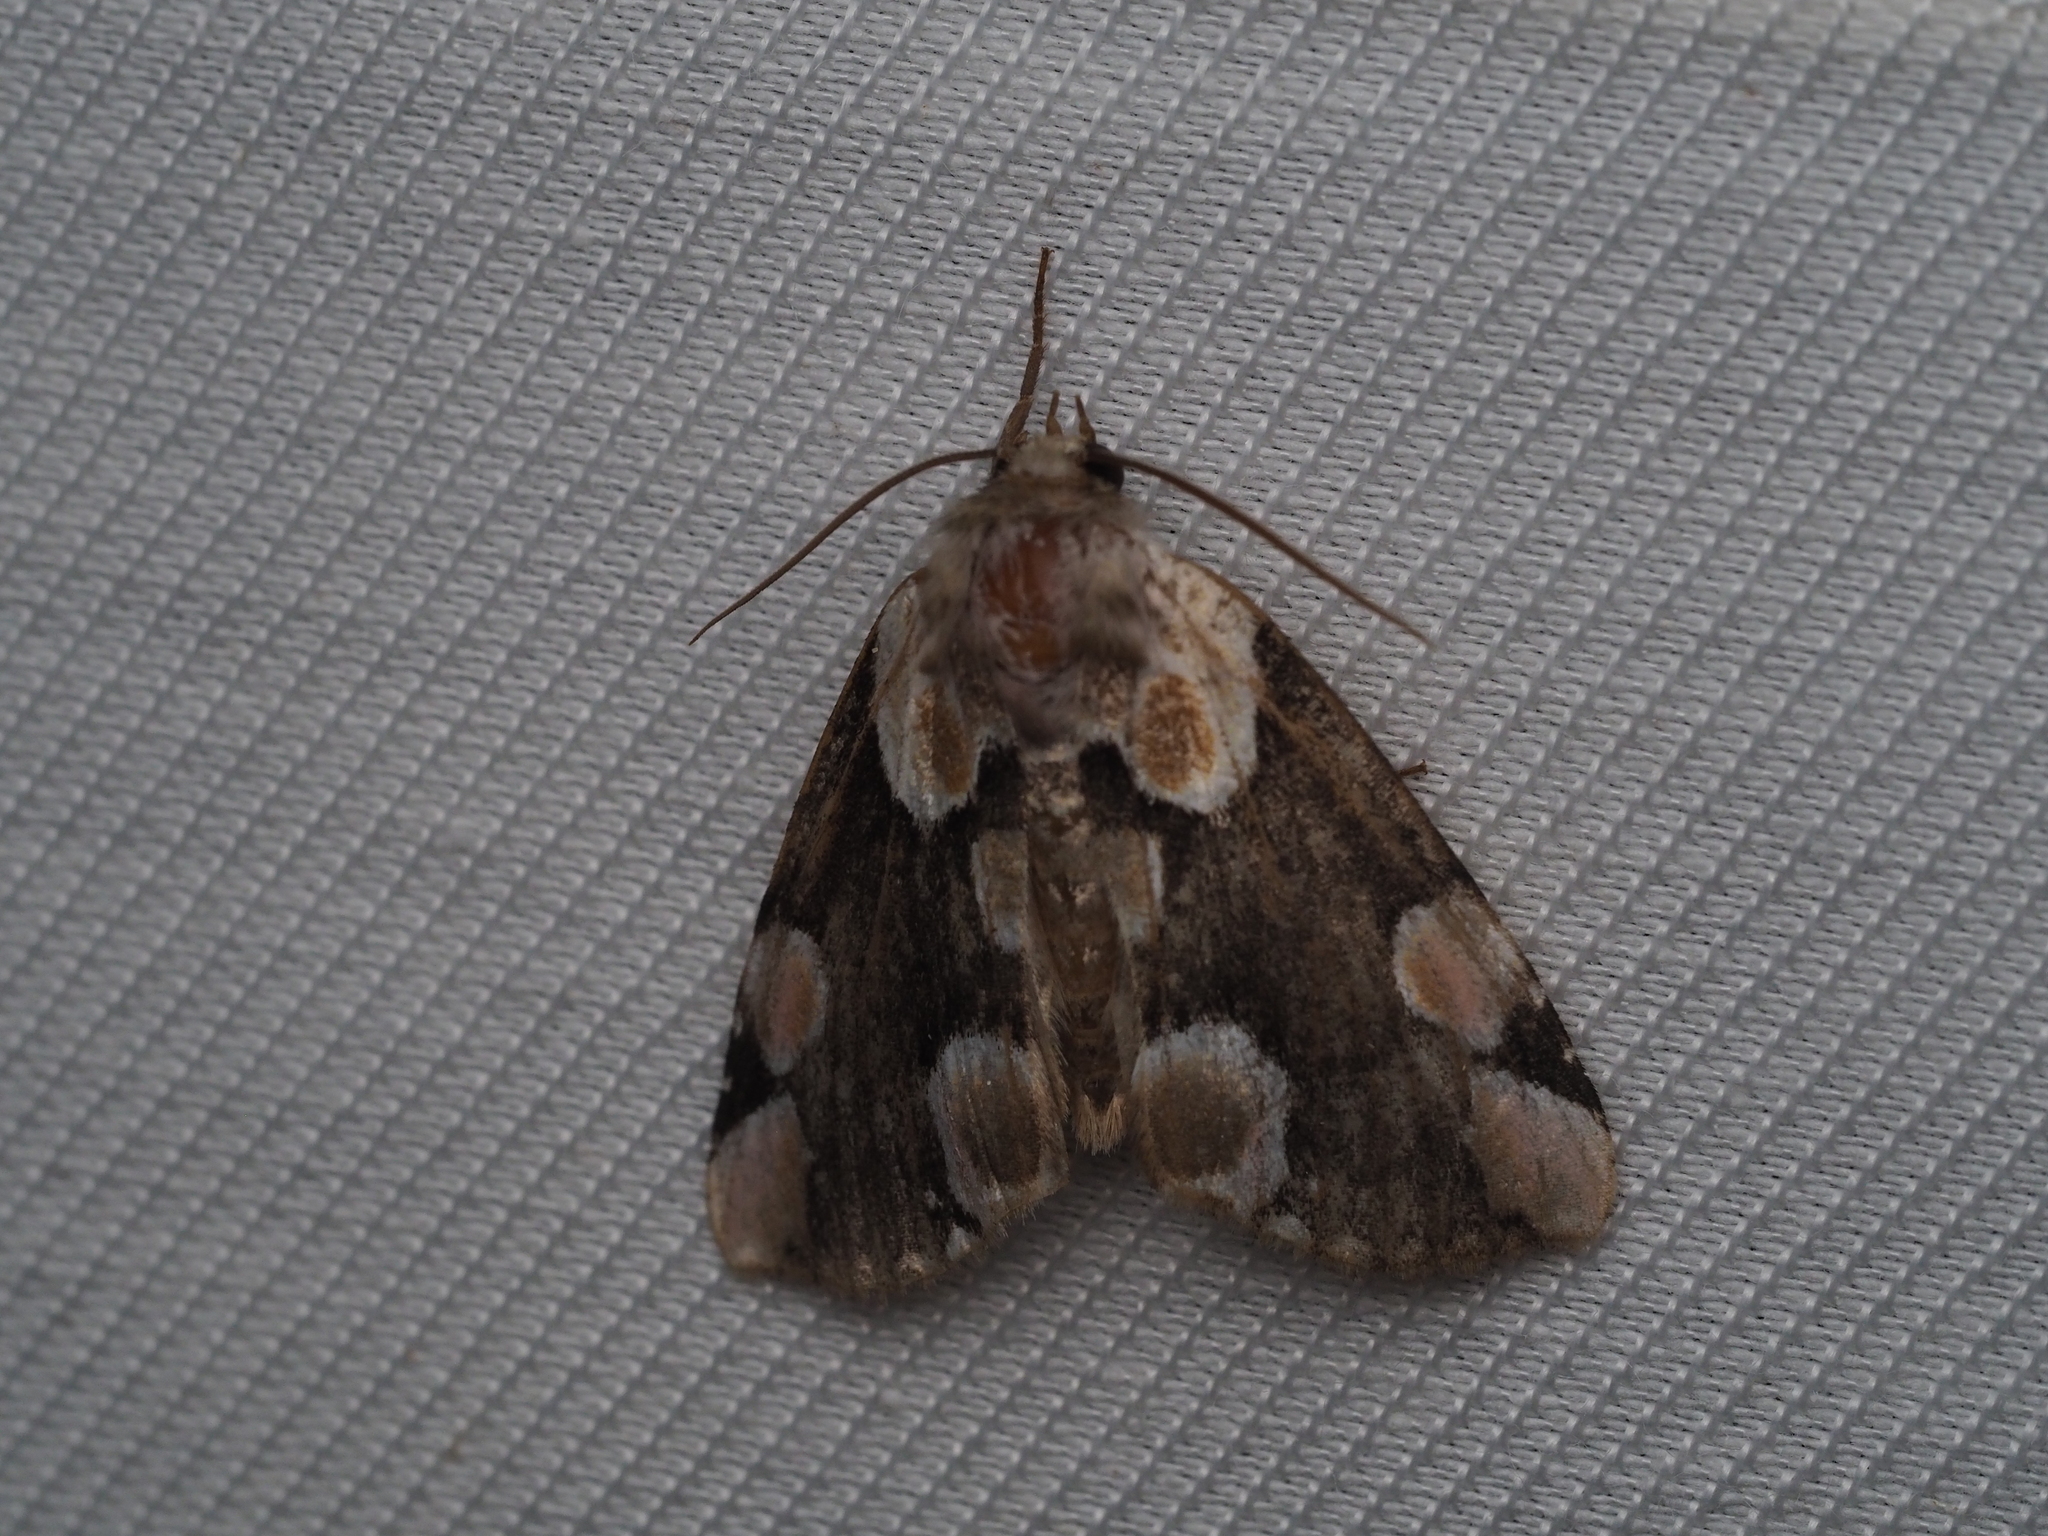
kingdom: Animalia
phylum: Arthropoda
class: Insecta
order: Lepidoptera
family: Drepanidae
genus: Thyatira
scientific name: Thyatira batis
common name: Peach blossom
